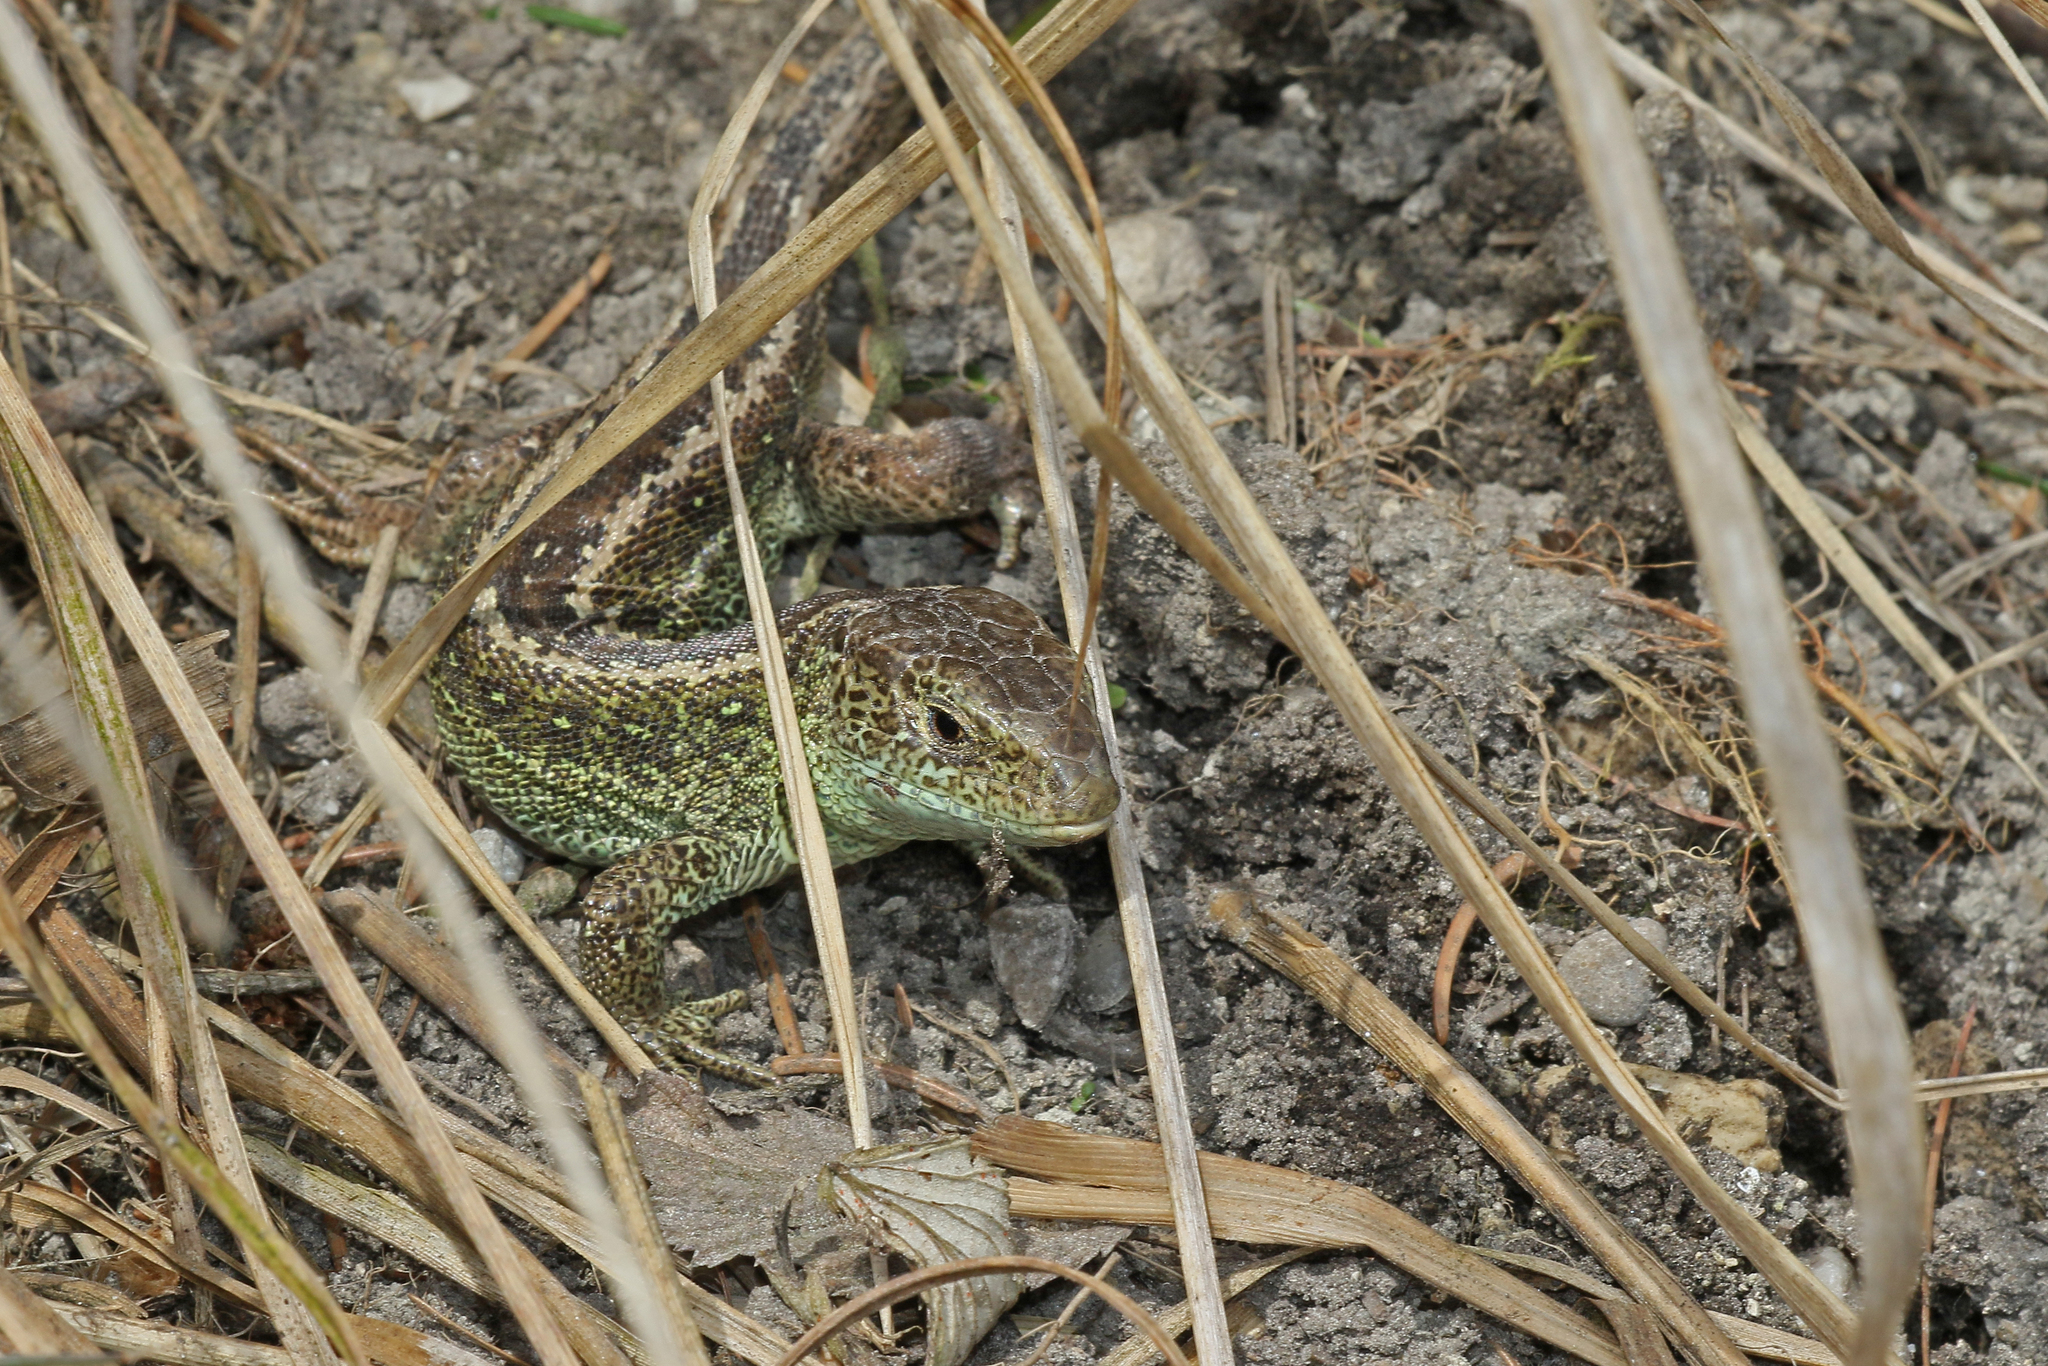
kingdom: Animalia
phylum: Chordata
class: Squamata
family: Lacertidae
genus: Lacerta
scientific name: Lacerta agilis
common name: Sand lizard
